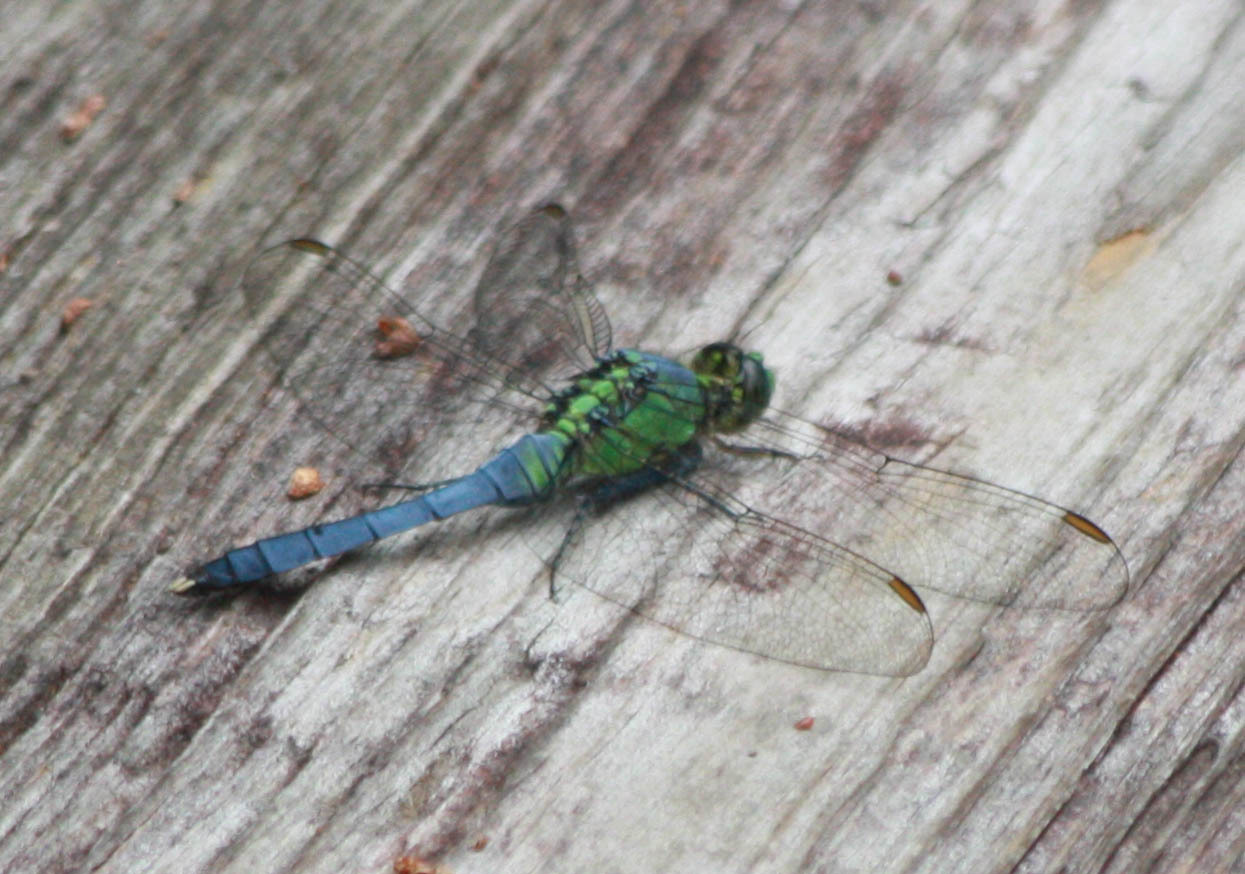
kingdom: Animalia
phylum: Arthropoda
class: Insecta
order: Odonata
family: Libellulidae
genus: Erythemis
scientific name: Erythemis simplicicollis
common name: Eastern pondhawk
